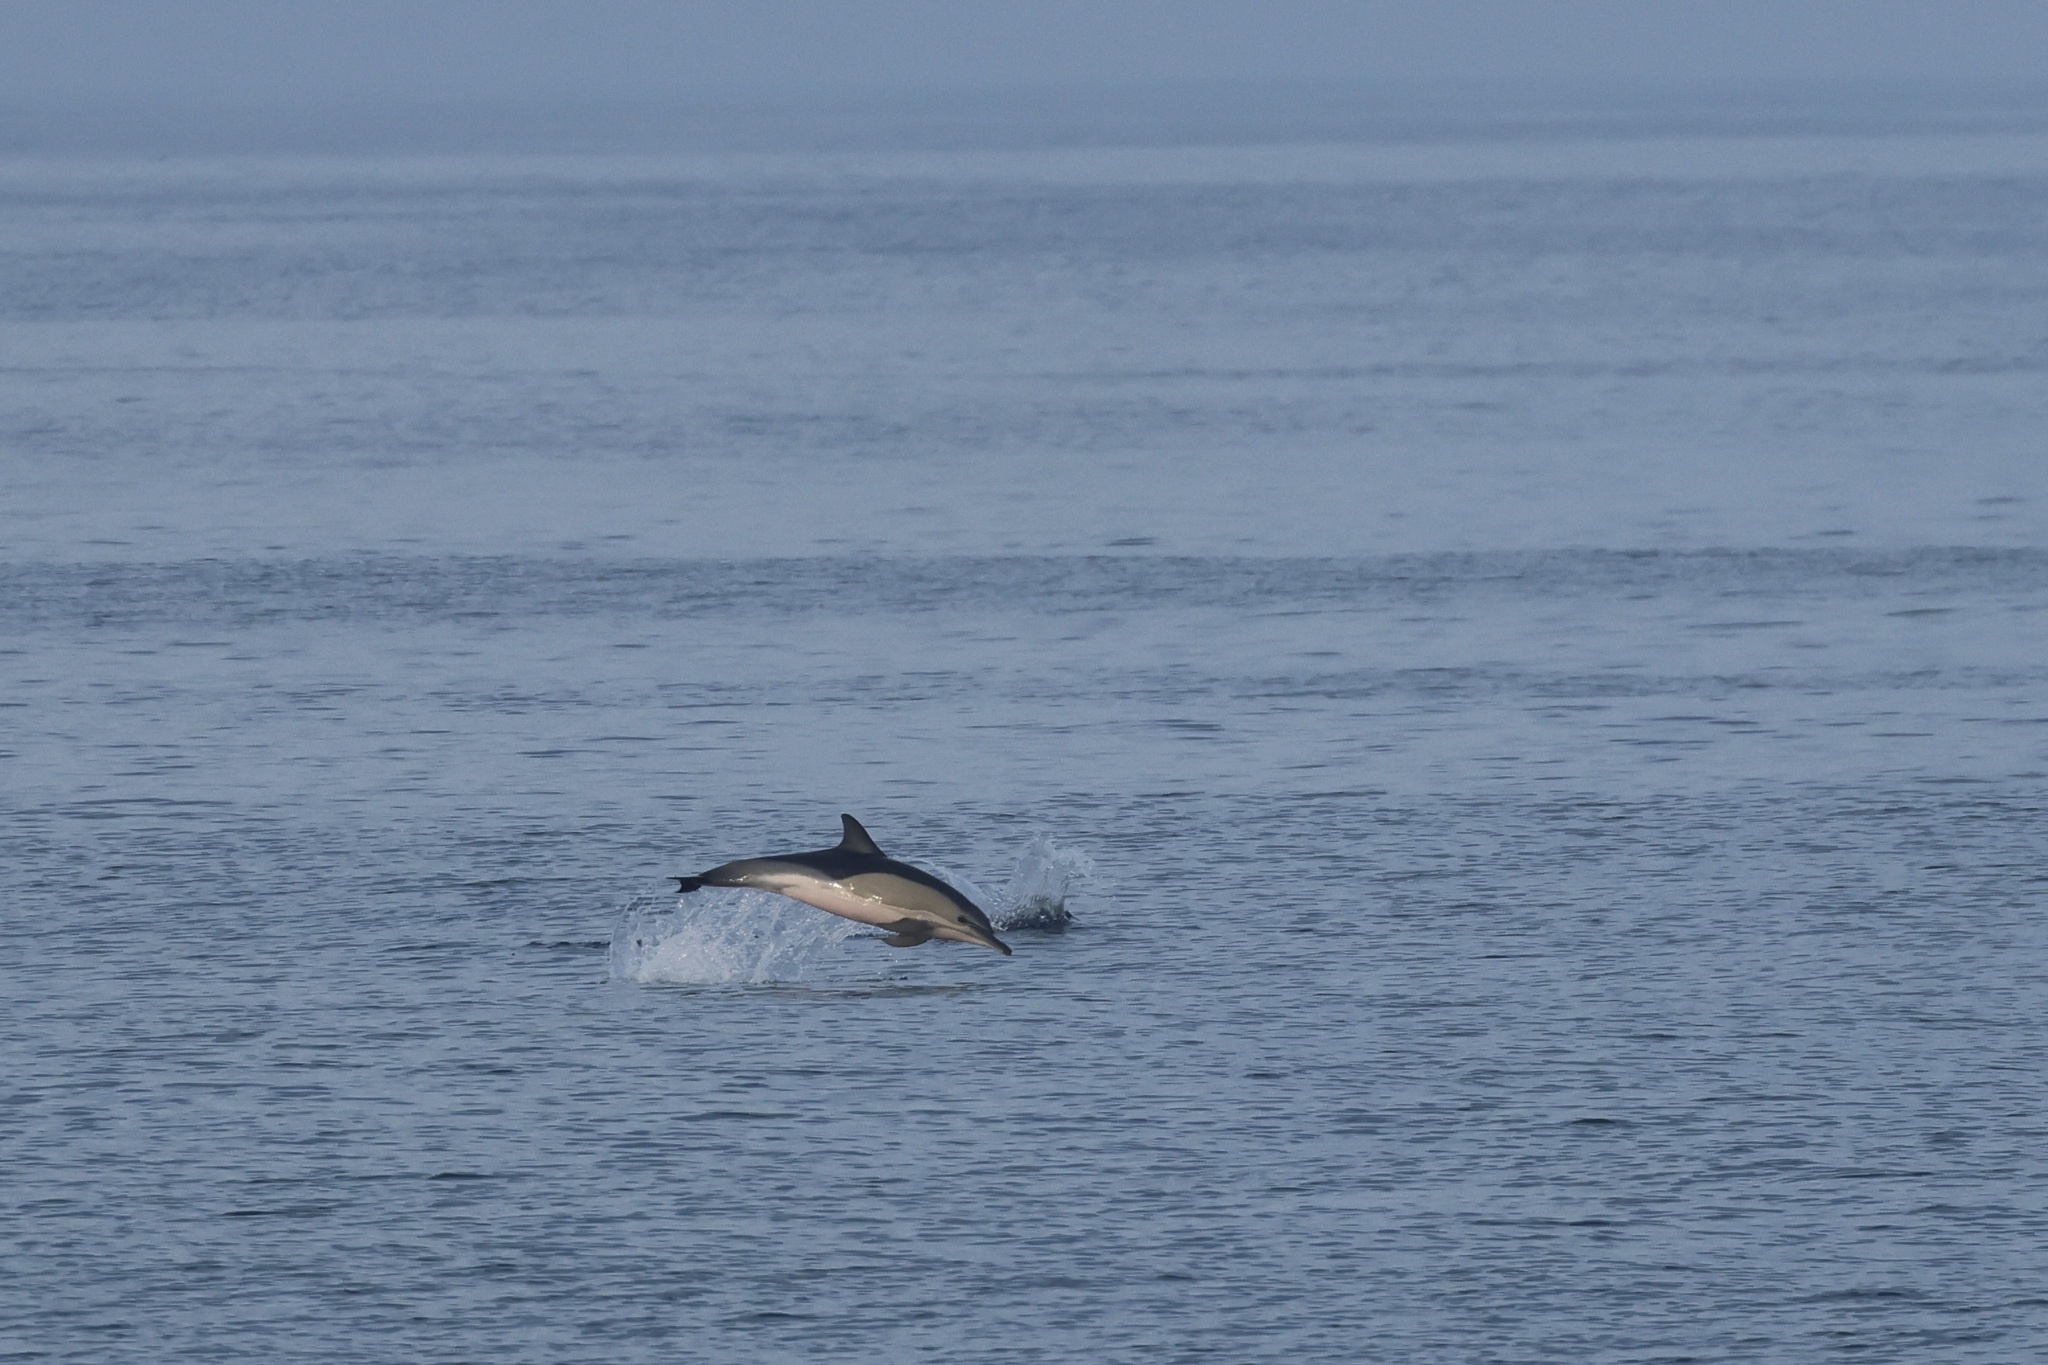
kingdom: Animalia
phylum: Chordata
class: Mammalia
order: Cetacea
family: Delphinidae
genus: Delphinus
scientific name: Delphinus delphis
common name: Common dolphin
